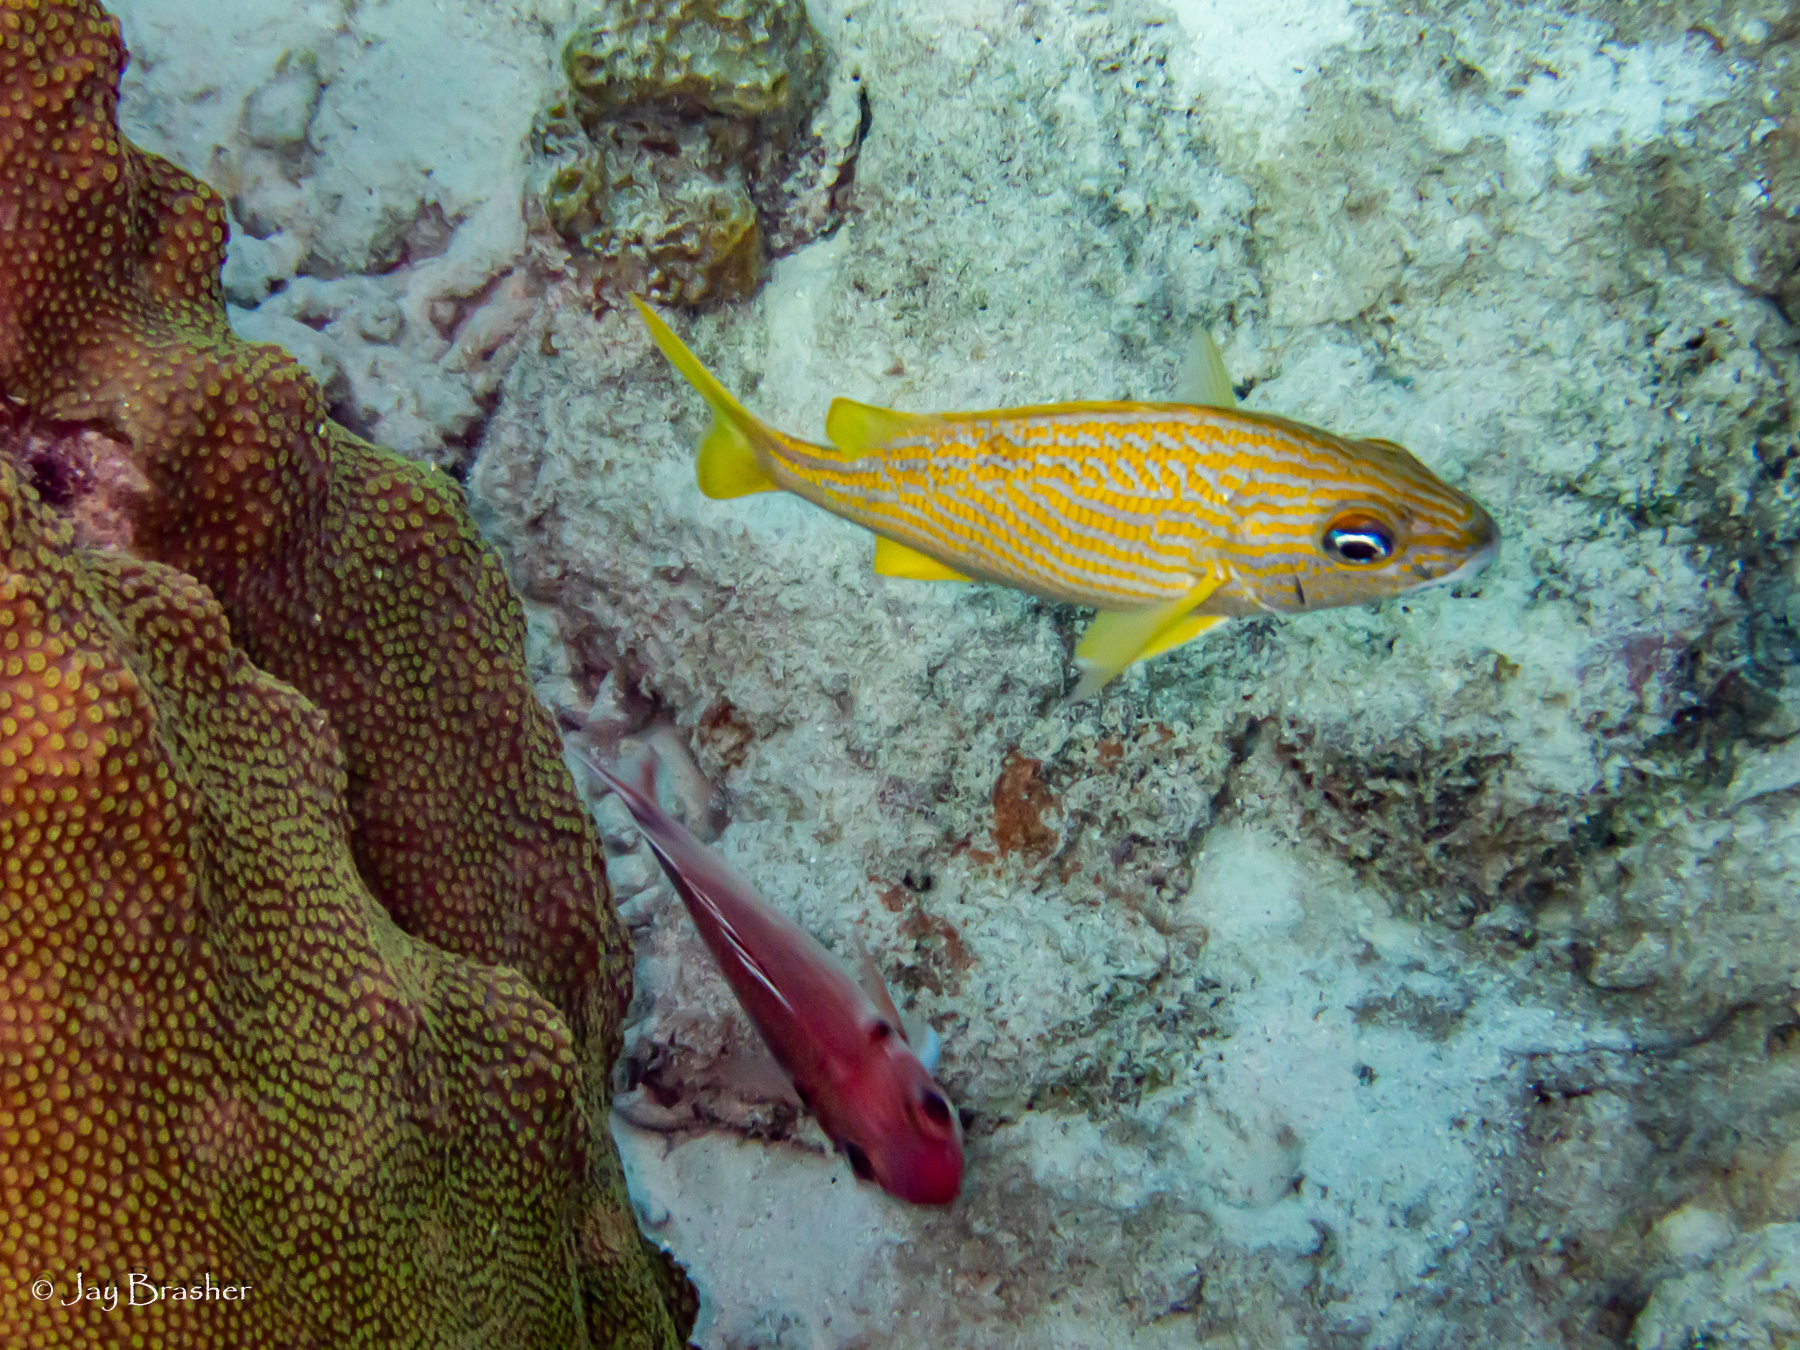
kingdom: Animalia
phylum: Chordata
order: Perciformes
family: Haemulidae
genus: Haemulon
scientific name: Haemulon flavolineatum
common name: French grunt
